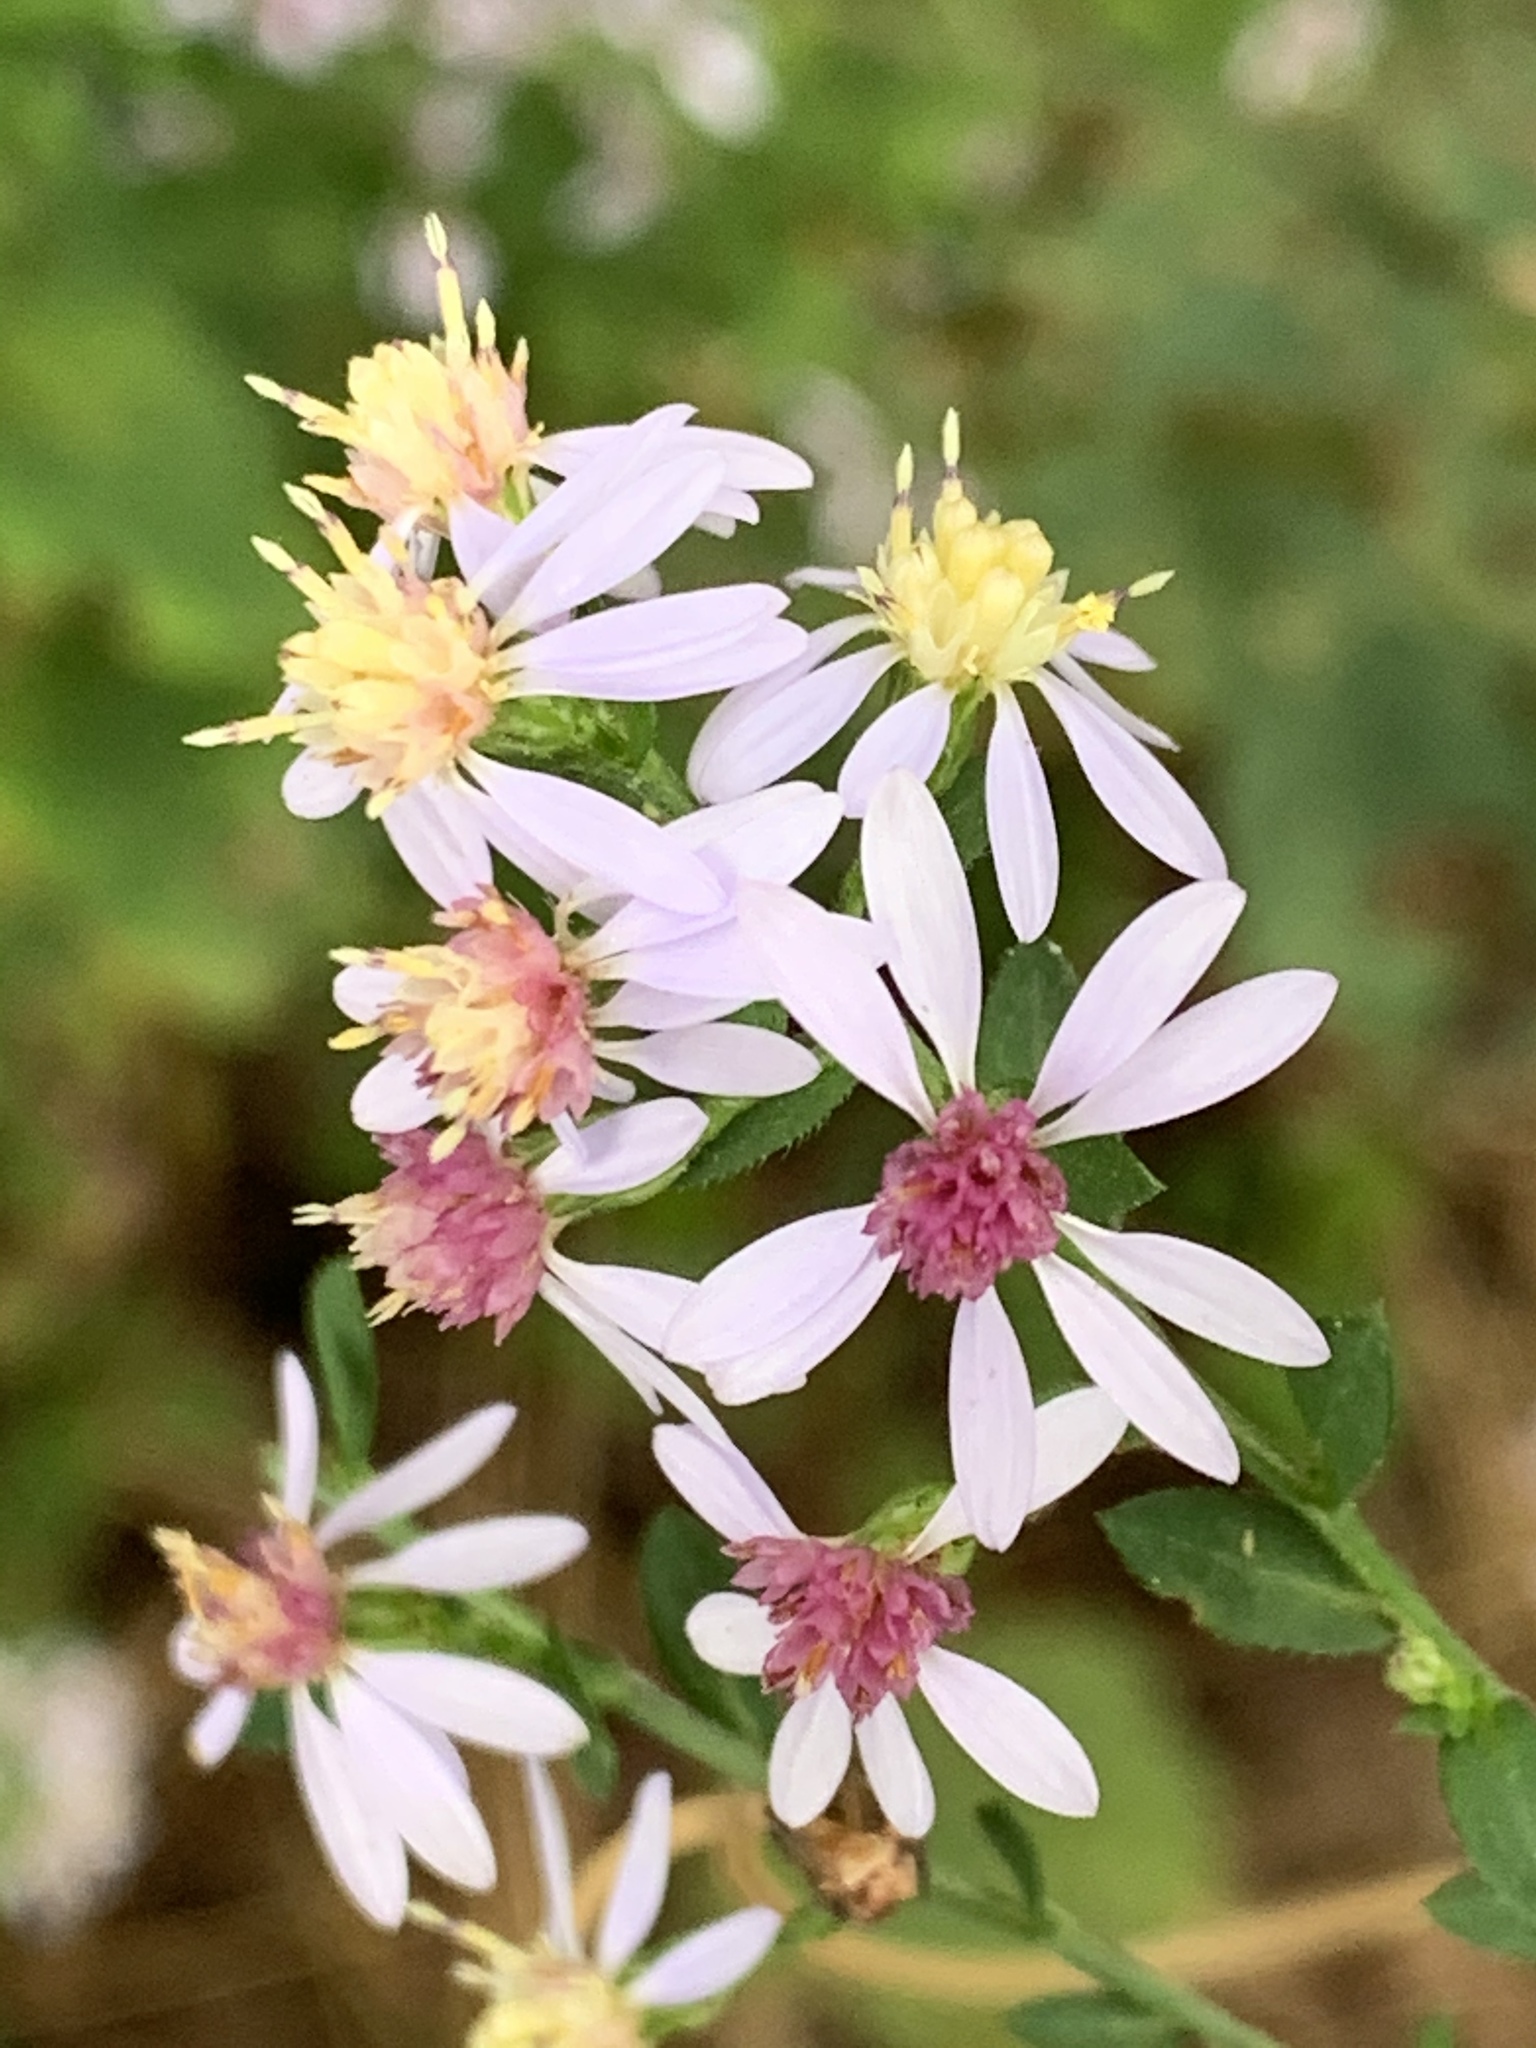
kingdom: Plantae
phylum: Tracheophyta
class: Magnoliopsida
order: Asterales
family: Asteraceae
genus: Symphyotrichum
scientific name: Symphyotrichum cordifolium
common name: Beeweed
